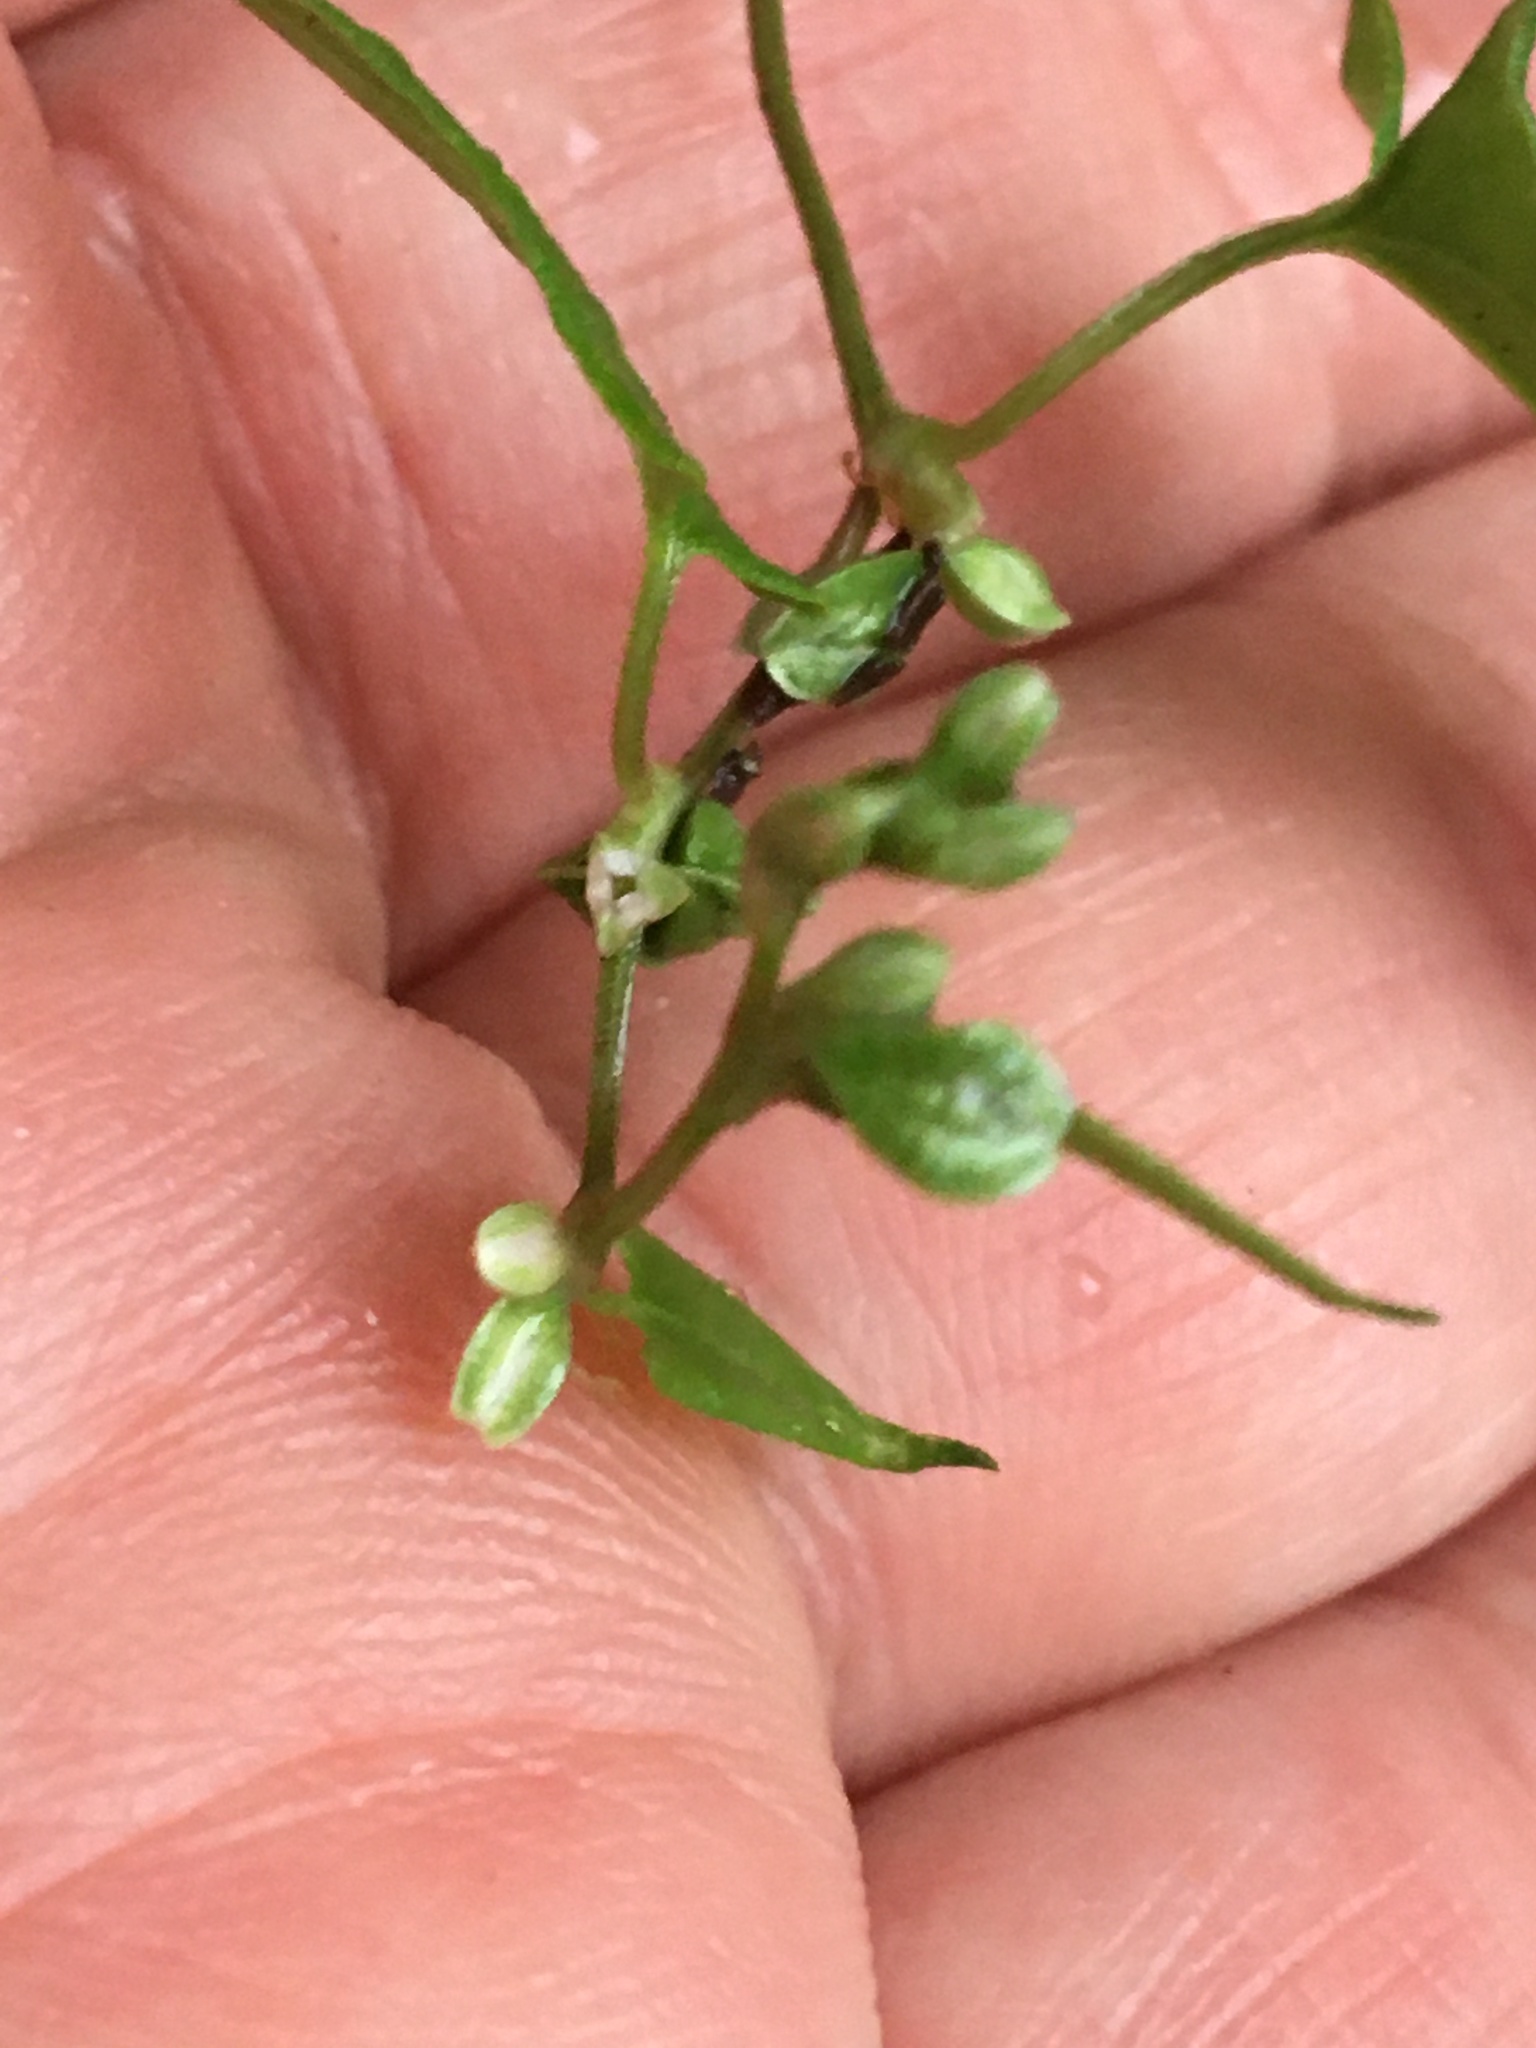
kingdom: Plantae
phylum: Tracheophyta
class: Magnoliopsida
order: Caryophyllales
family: Polygonaceae
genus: Fallopia
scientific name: Fallopia dumetorum
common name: Copse-bindweed
